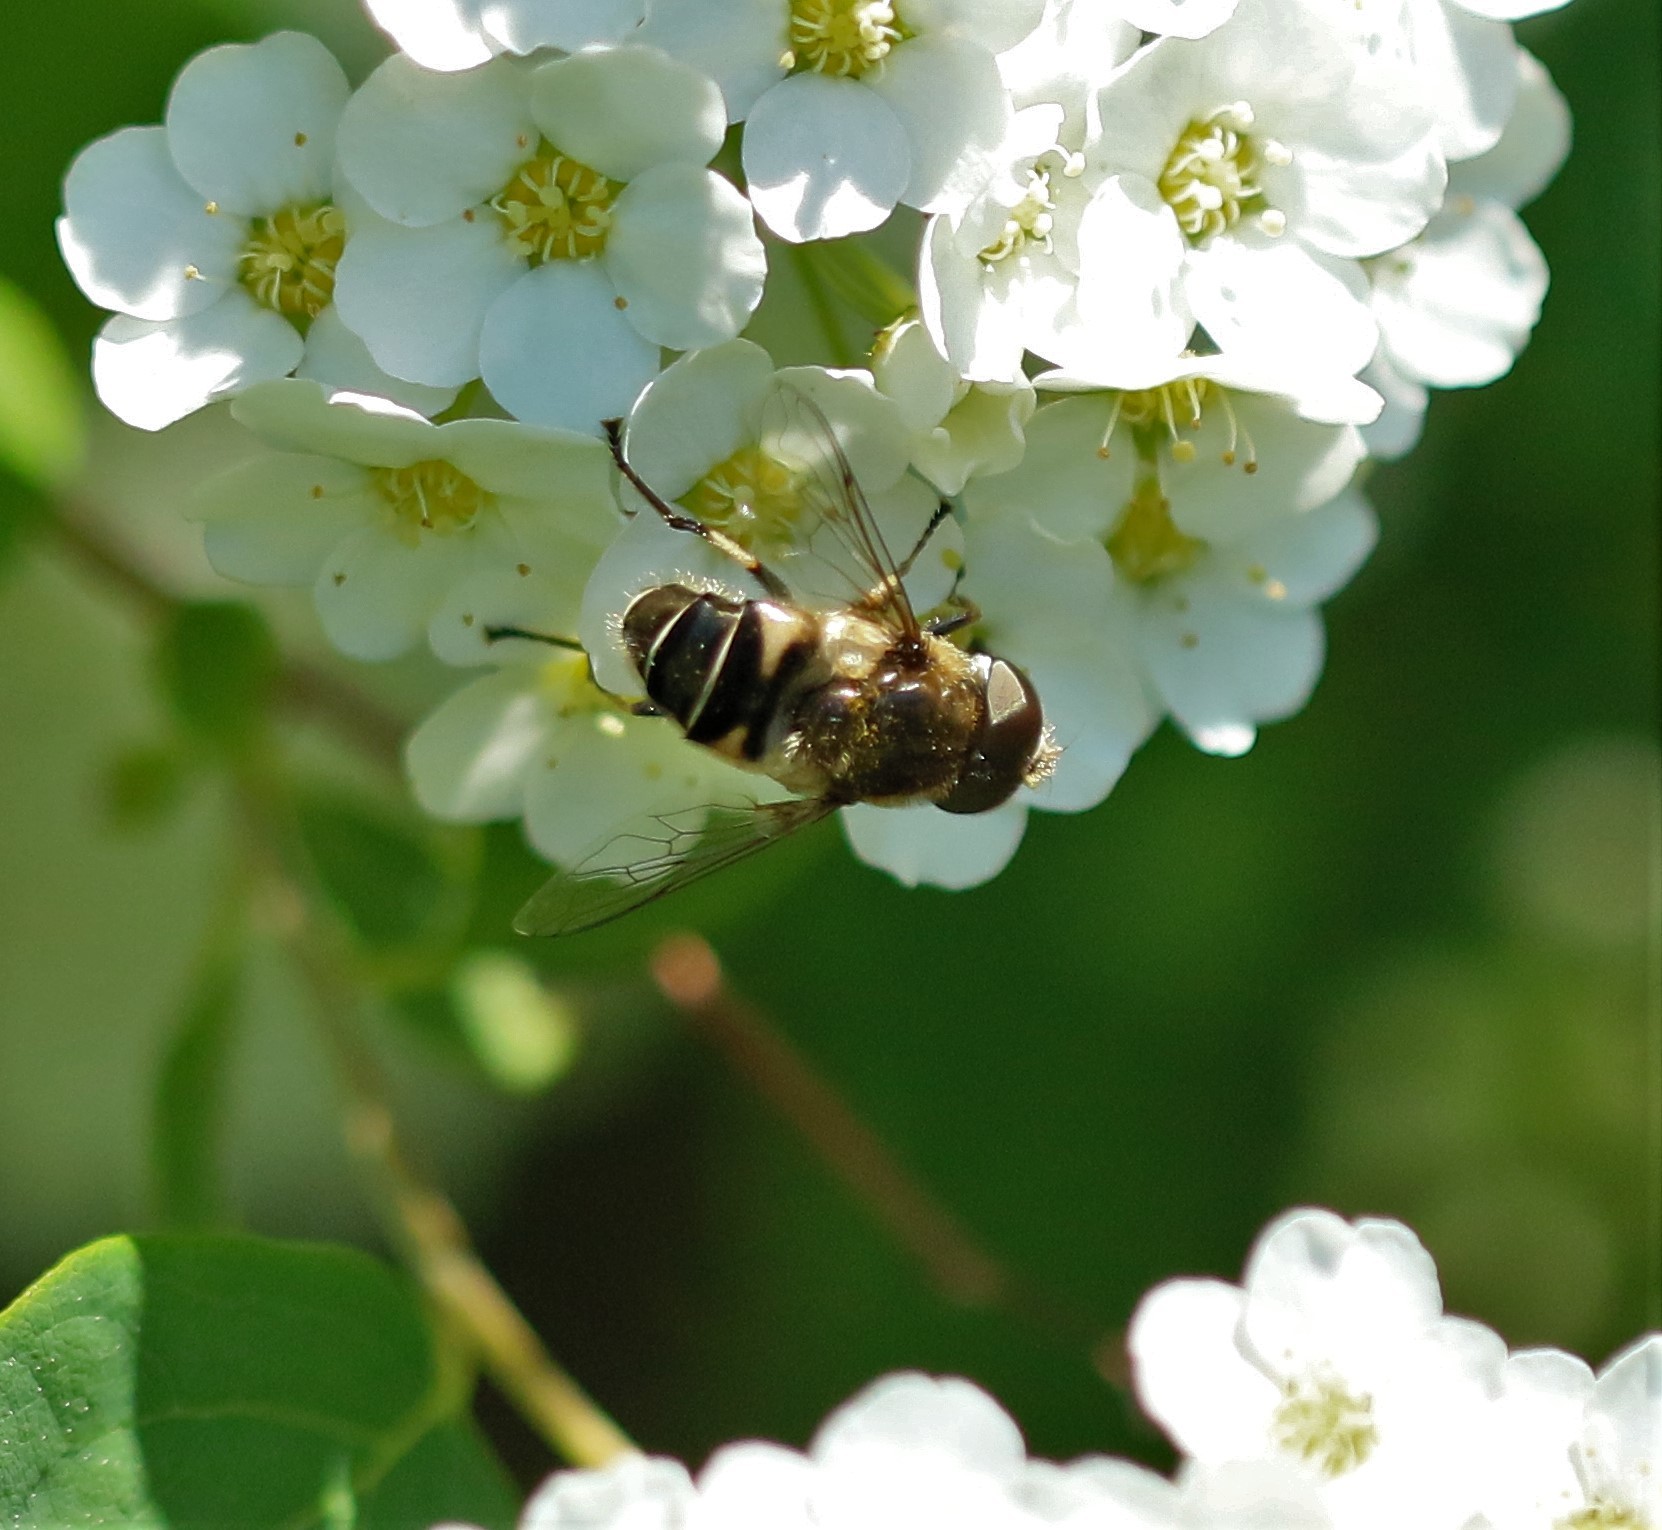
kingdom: Animalia
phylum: Arthropoda
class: Insecta
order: Diptera
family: Syrphidae
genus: Eristalis
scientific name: Eristalis nemorum
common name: Orange-spined drone fly
